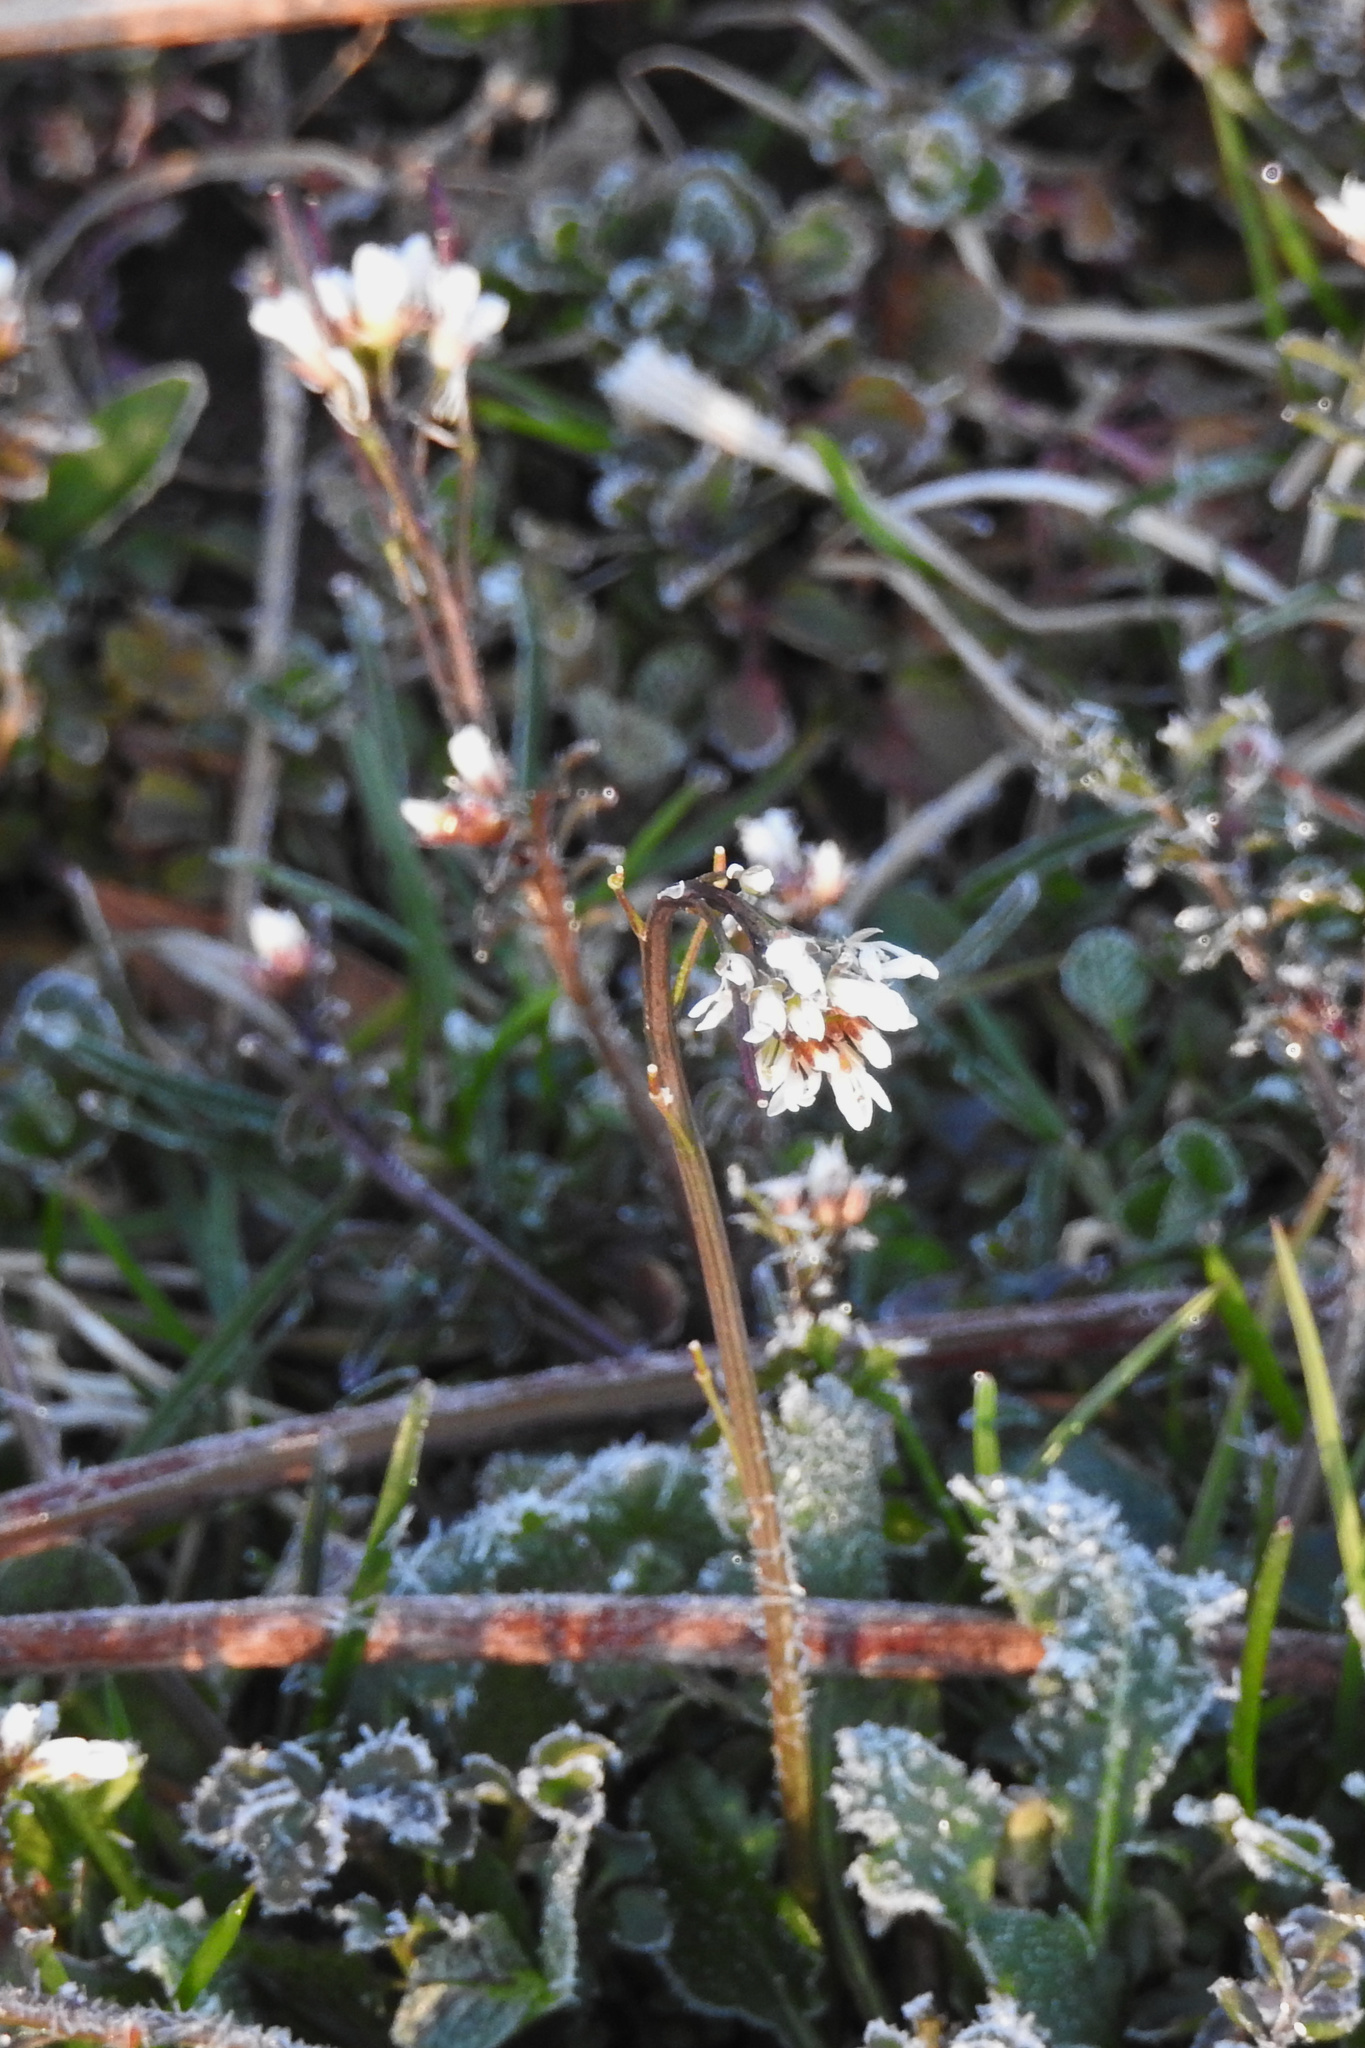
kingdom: Plantae
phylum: Tracheophyta
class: Magnoliopsida
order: Brassicales
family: Brassicaceae
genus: Cardamine
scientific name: Cardamine hirsuta
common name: Hairy bittercress
